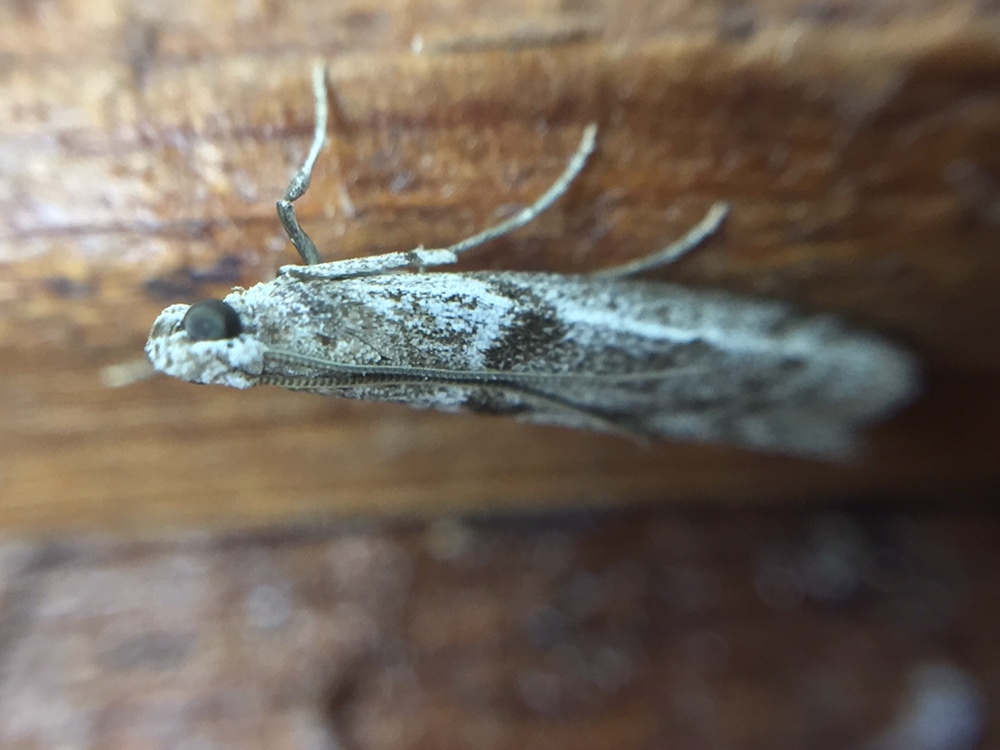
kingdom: Animalia
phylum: Arthropoda
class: Insecta
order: Lepidoptera
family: Pyralidae
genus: Patagoniodes
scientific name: Patagoniodes farinaria
